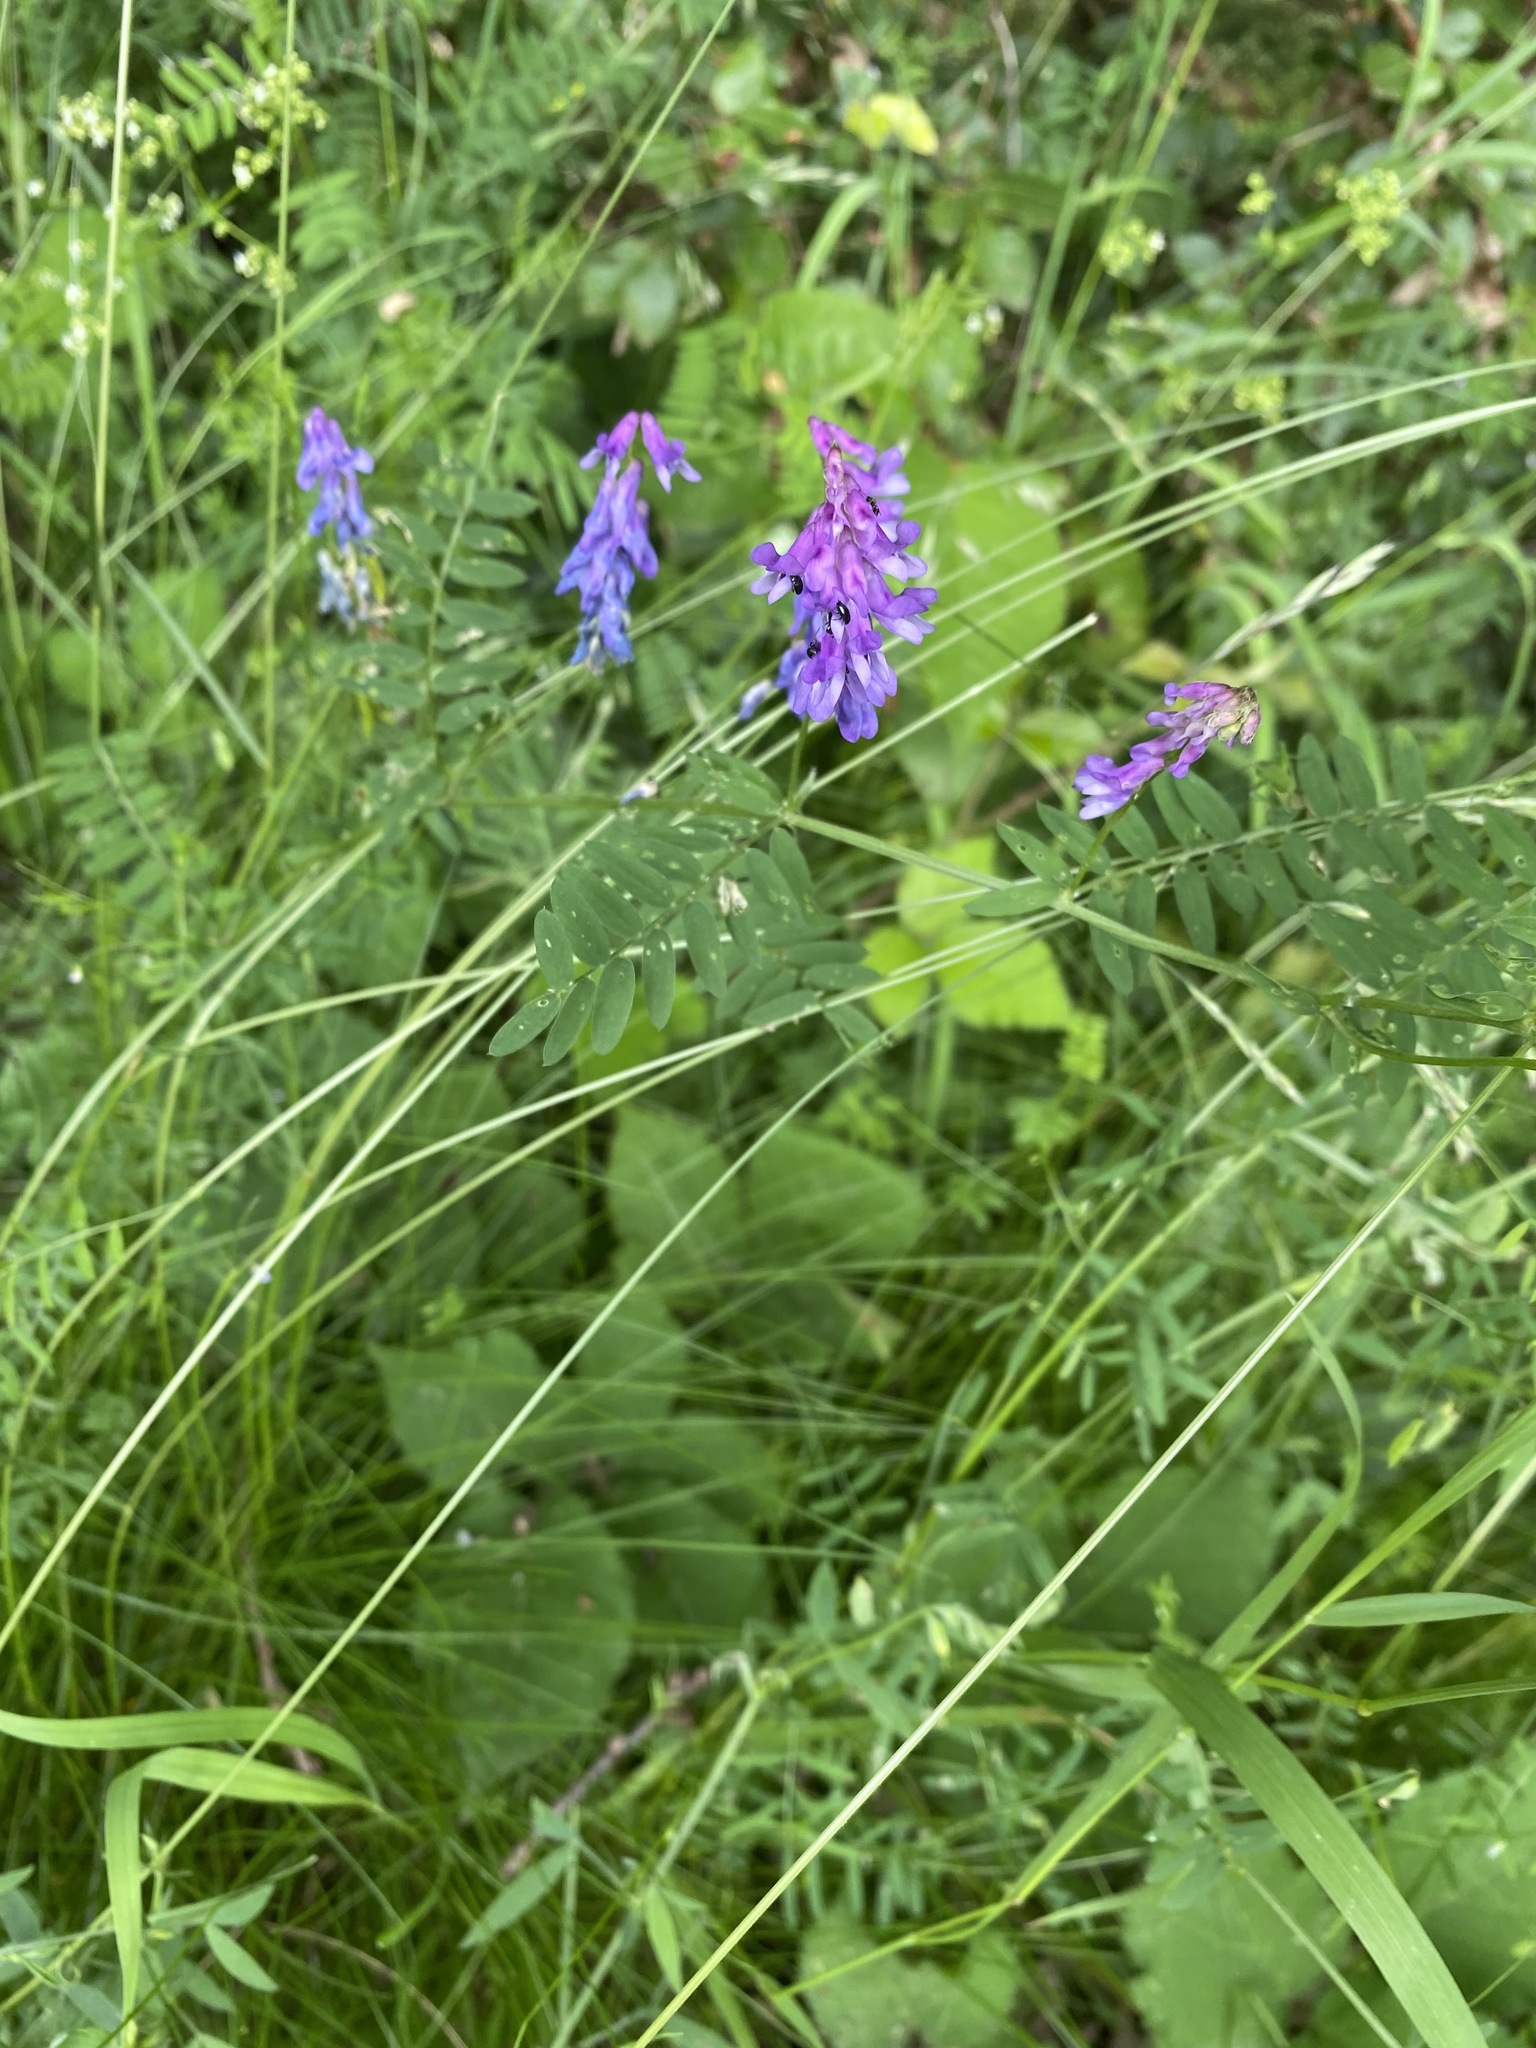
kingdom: Plantae
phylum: Tracheophyta
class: Magnoliopsida
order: Fabales
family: Fabaceae
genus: Vicia
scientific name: Vicia cracca
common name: Bird vetch
